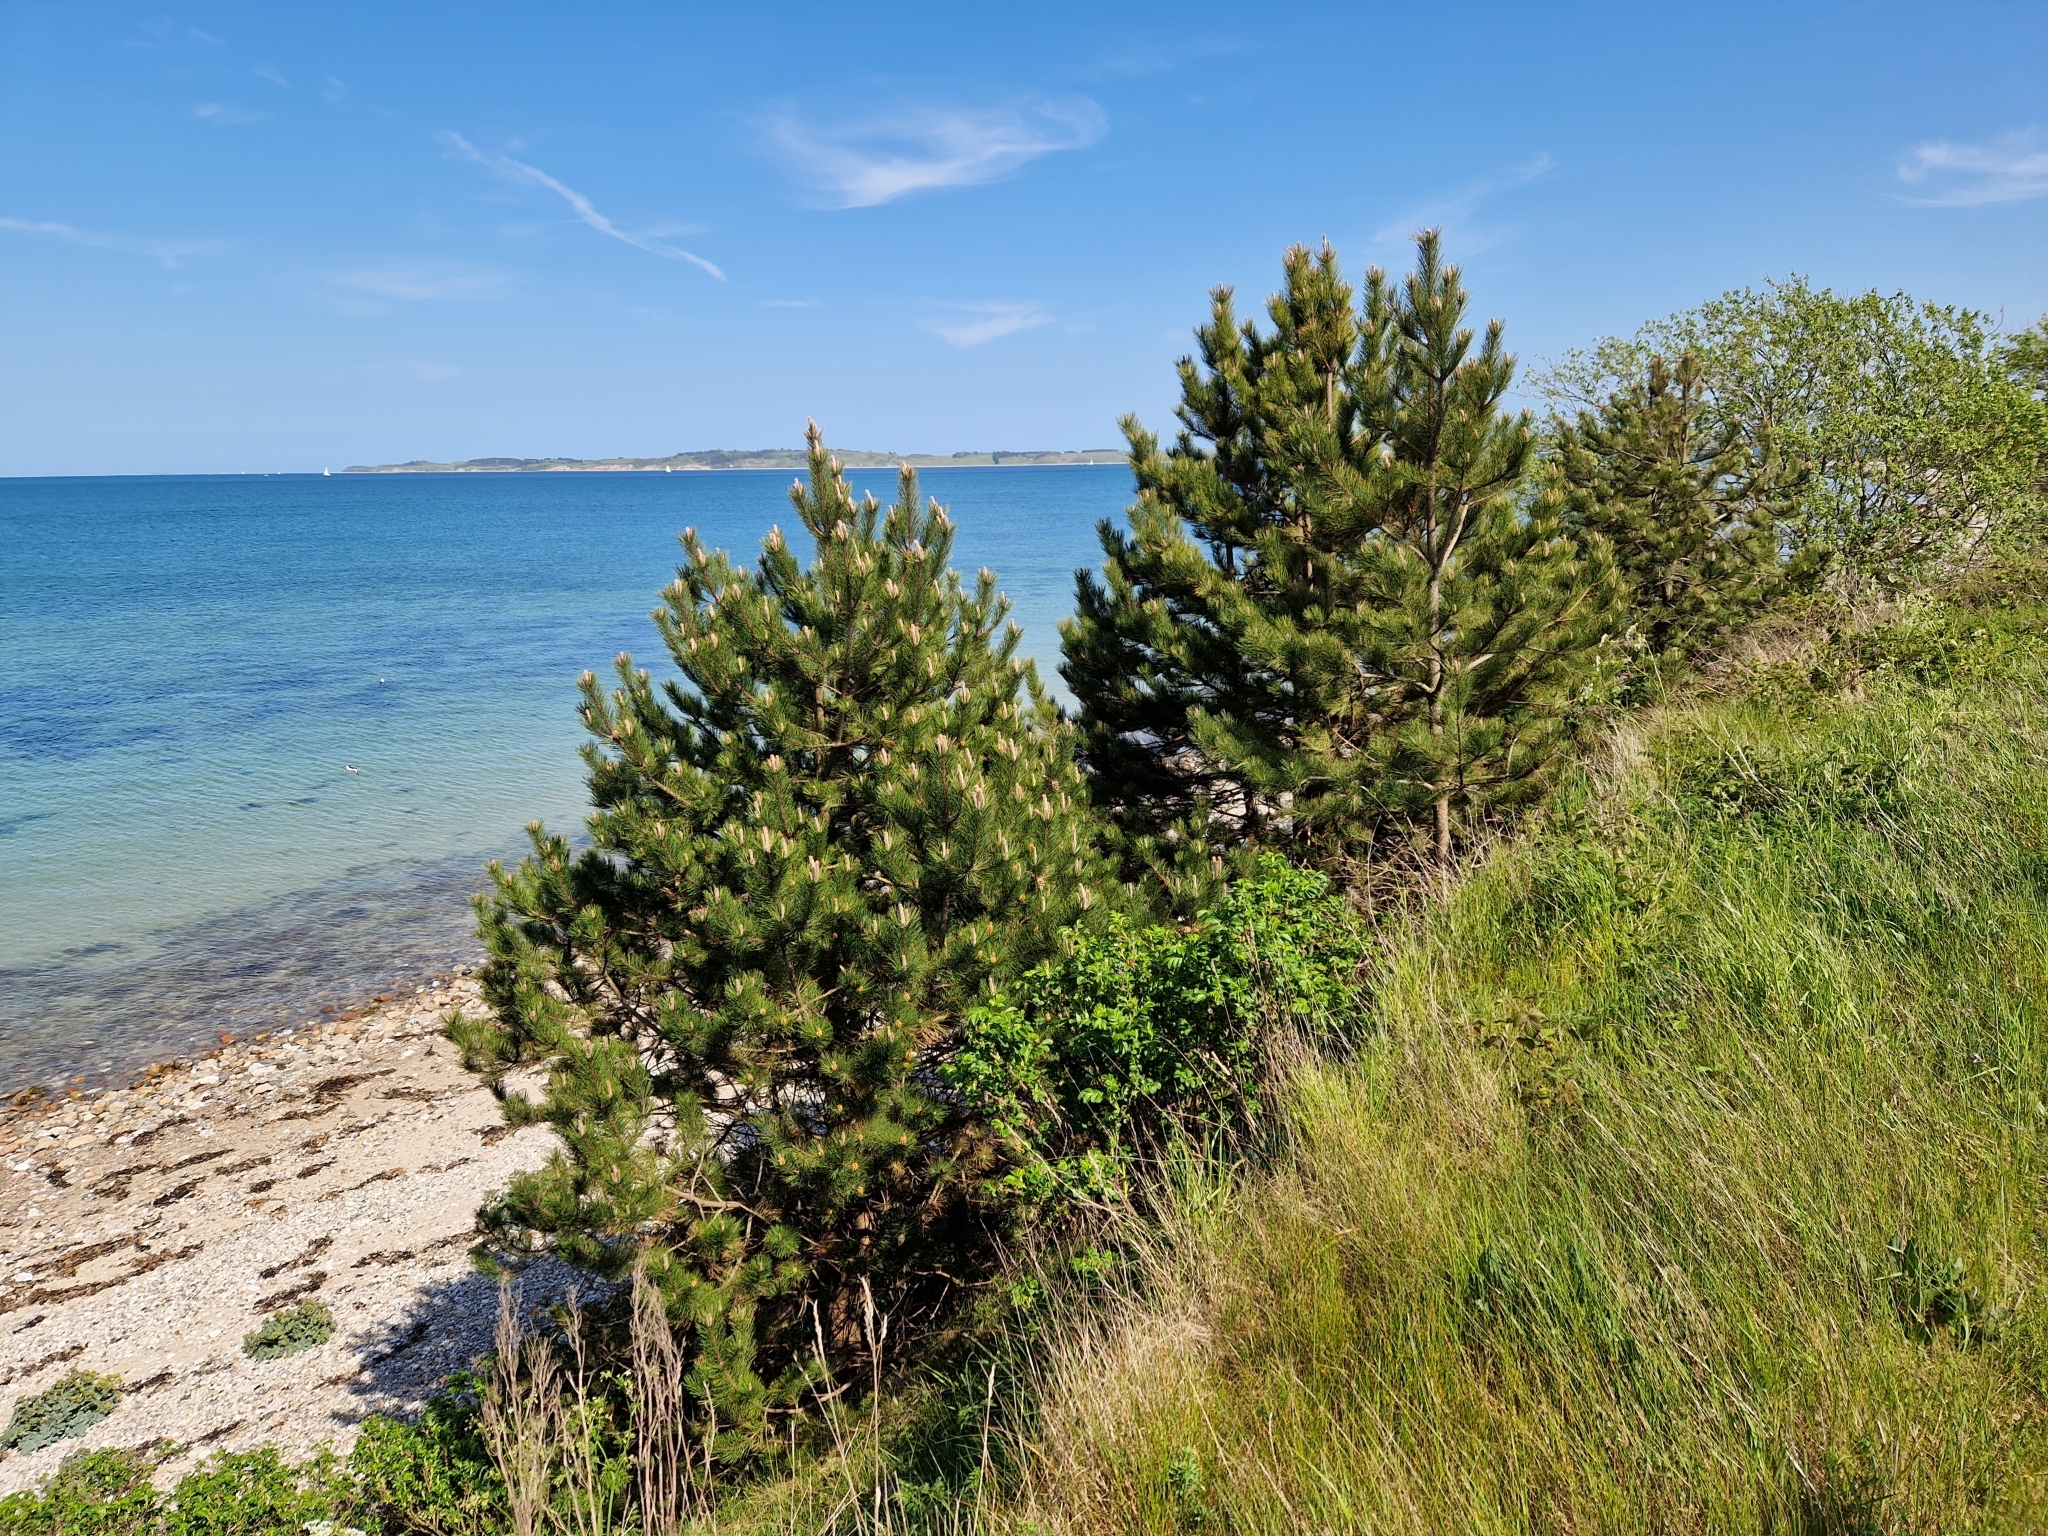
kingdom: Plantae
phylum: Tracheophyta
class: Pinopsida
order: Pinales
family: Pinaceae
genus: Pinus
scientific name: Pinus nigra
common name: Austrian pine
